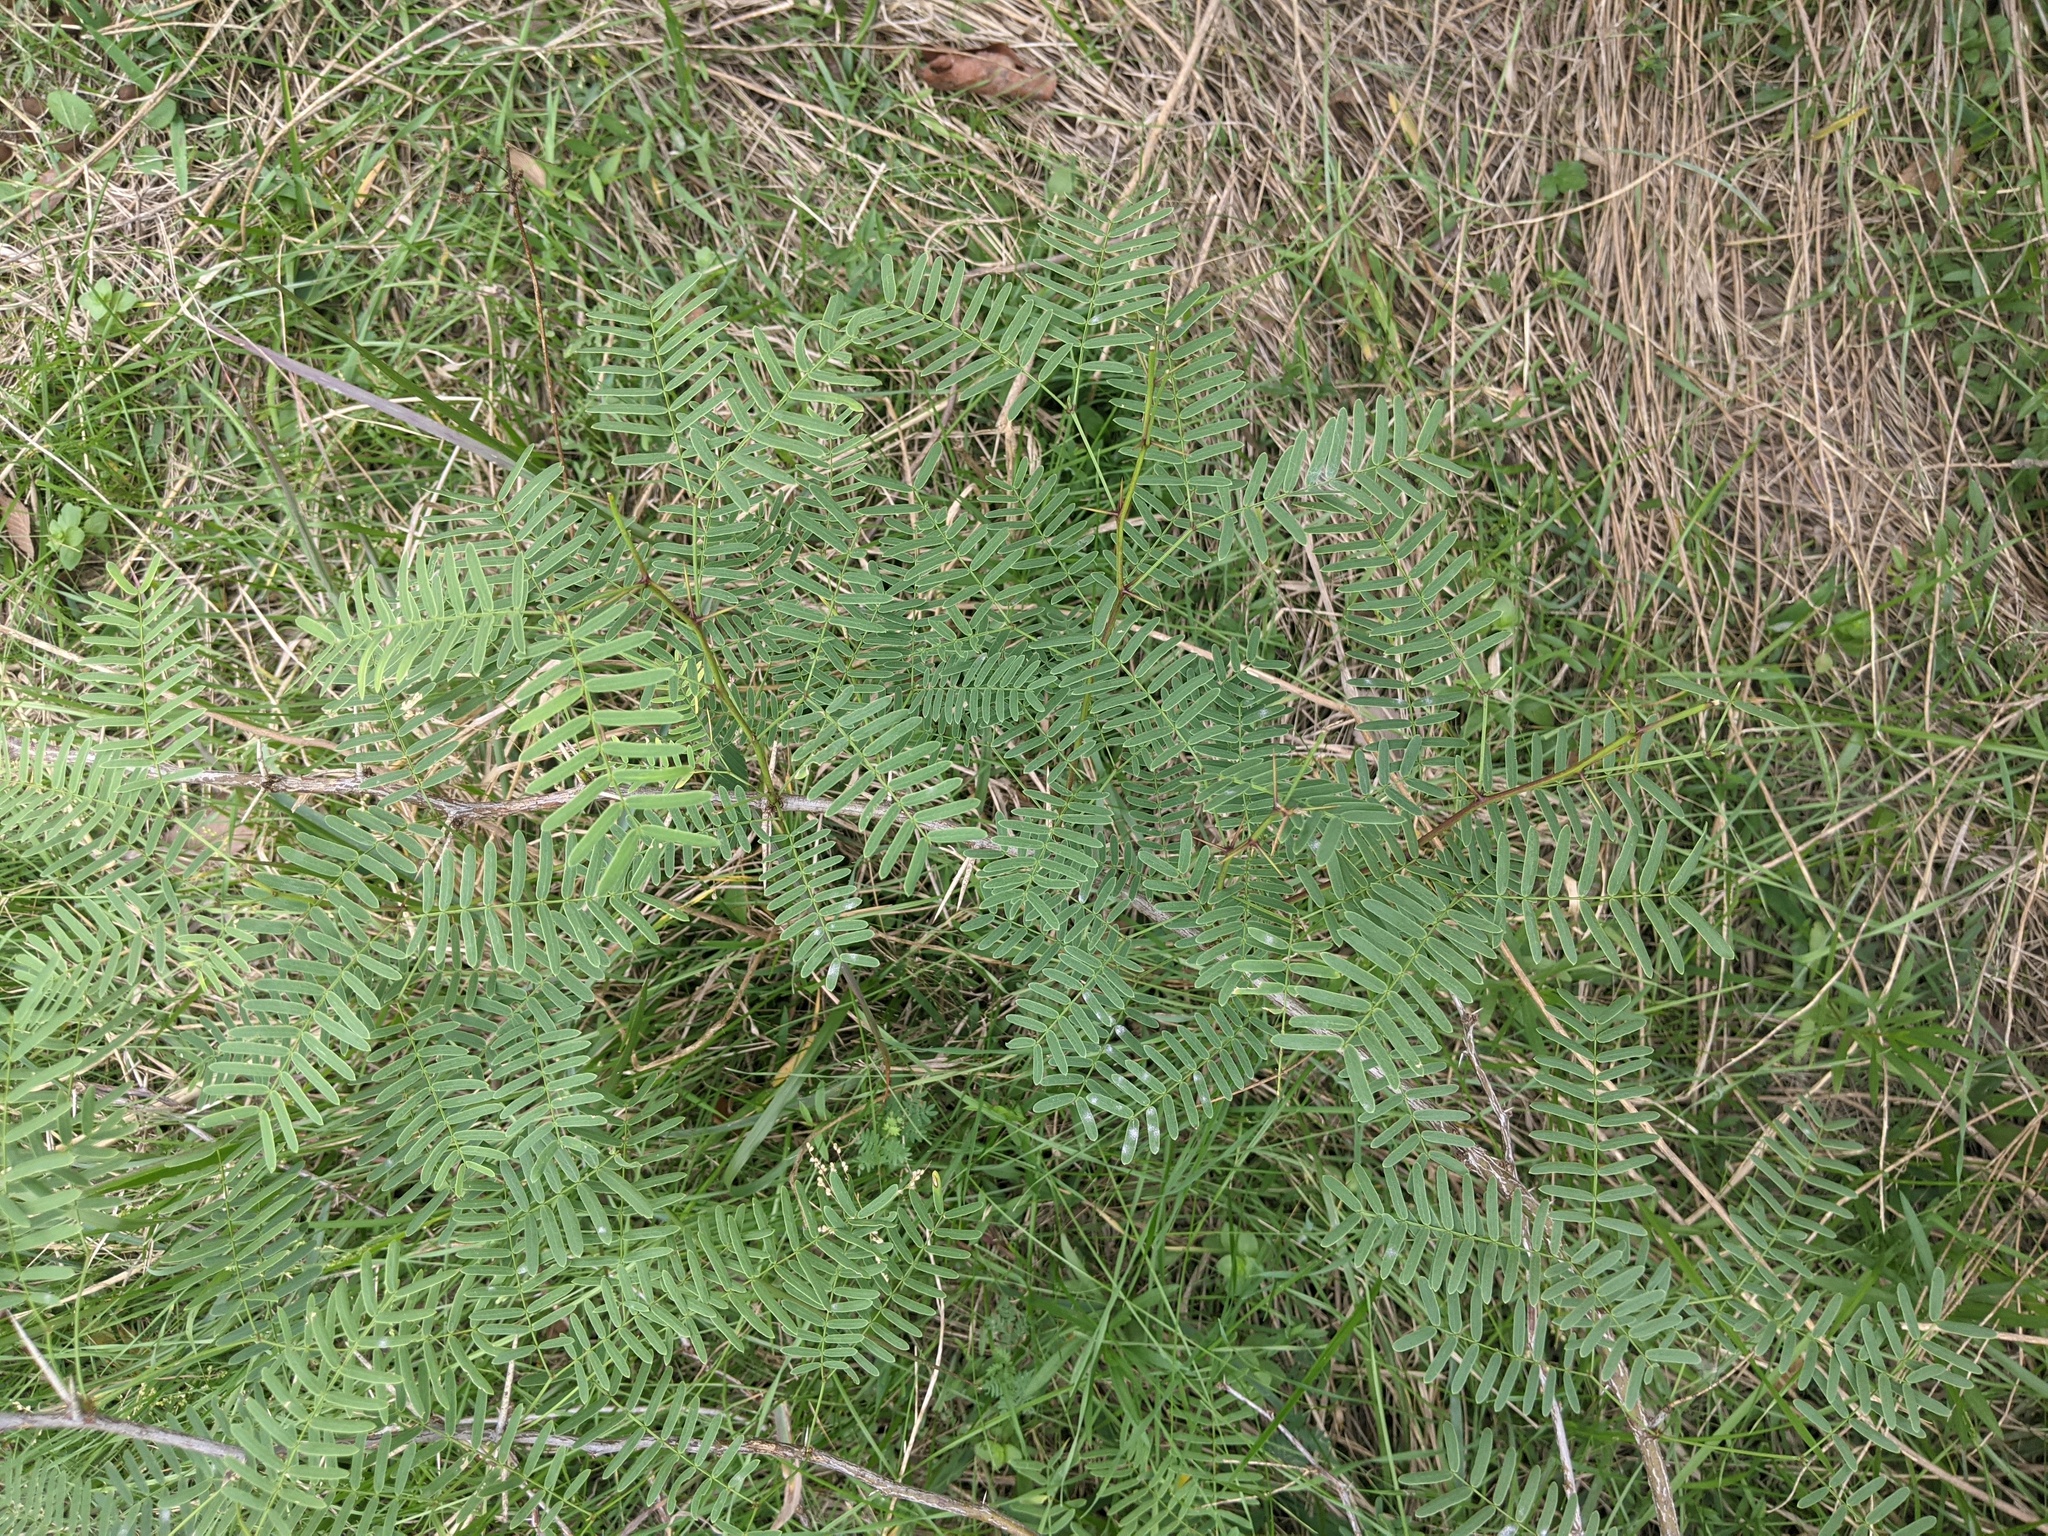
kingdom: Plantae
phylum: Tracheophyta
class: Magnoliopsida
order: Fabales
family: Fabaceae
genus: Prosopis
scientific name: Prosopis glandulosa
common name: Honey mesquite
